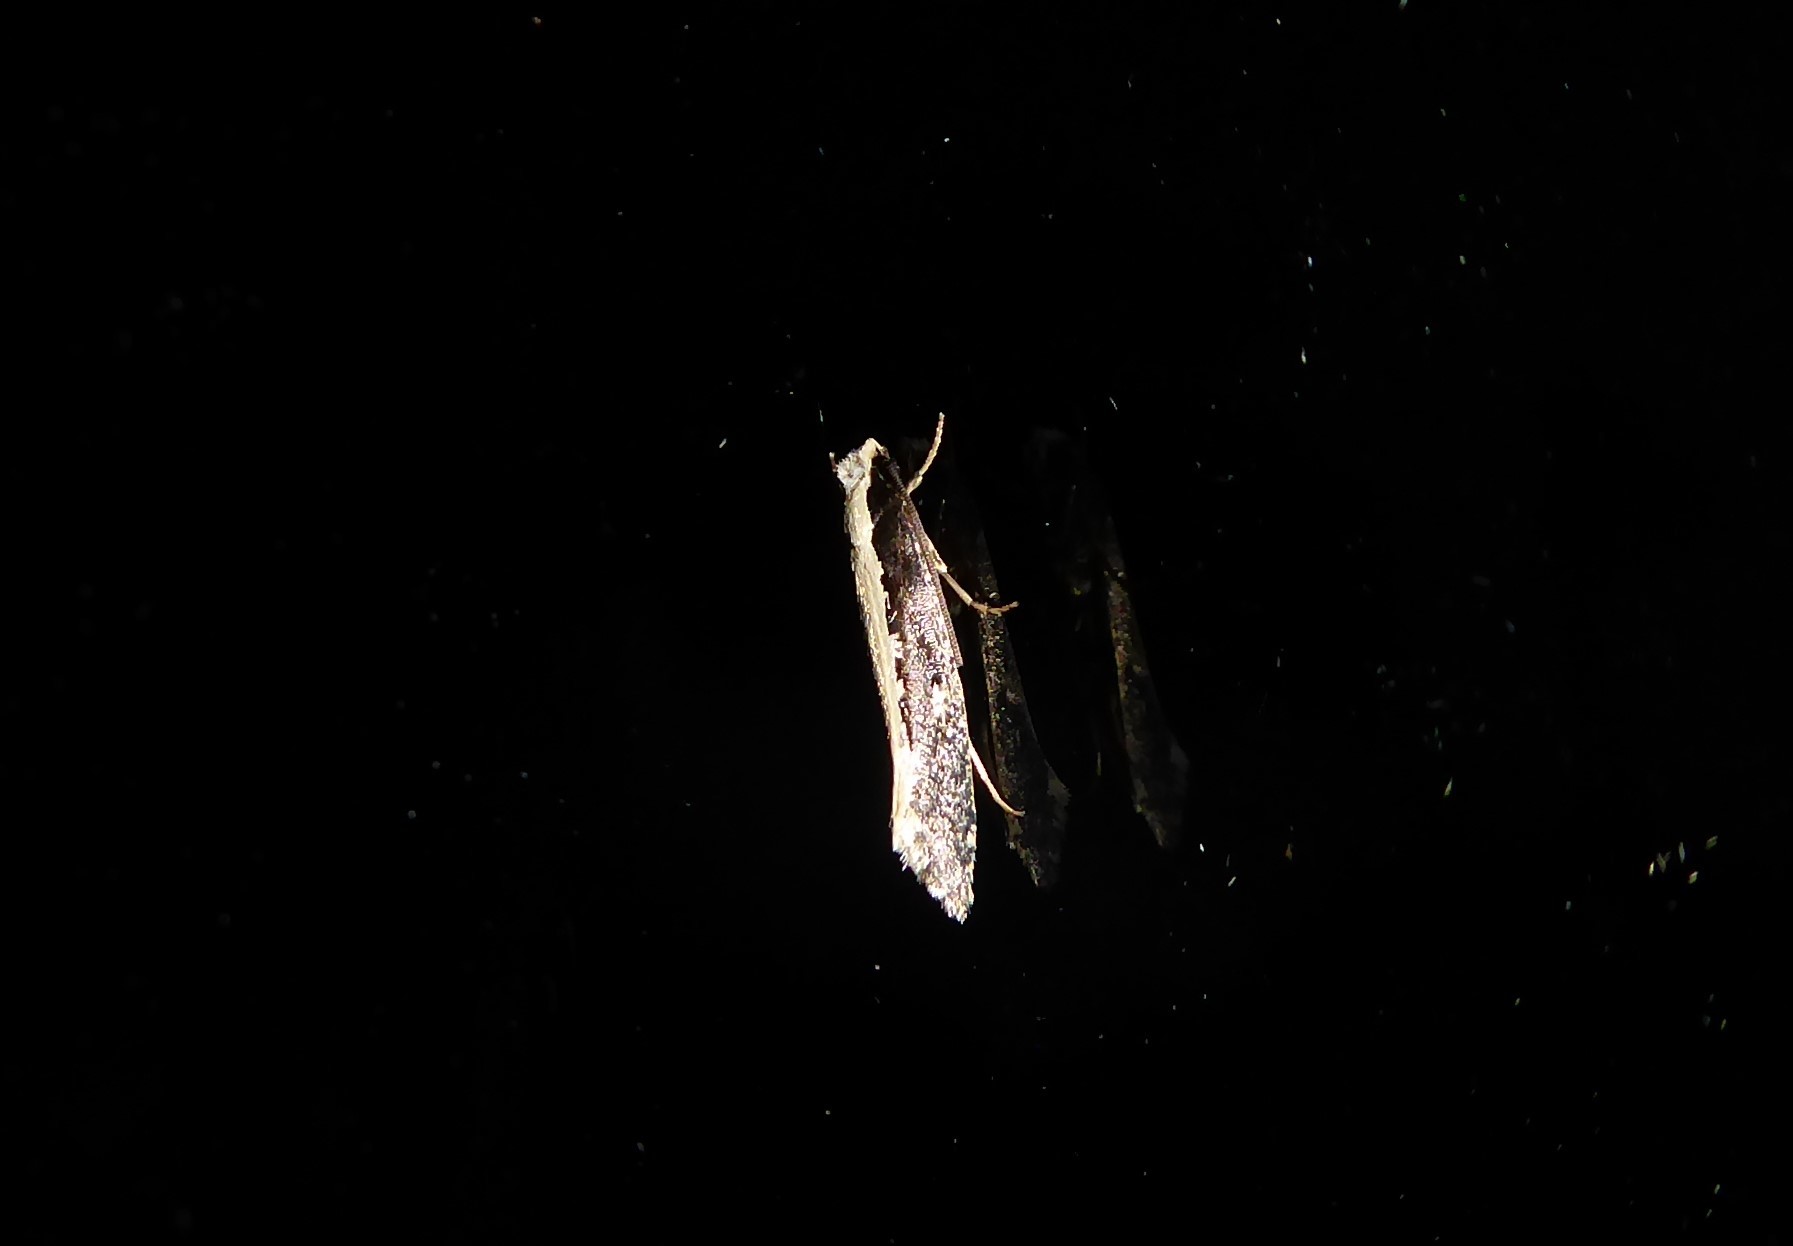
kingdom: Animalia
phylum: Arthropoda
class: Insecta
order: Lepidoptera
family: Tineidae
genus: Monopis
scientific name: Monopis ethelella
